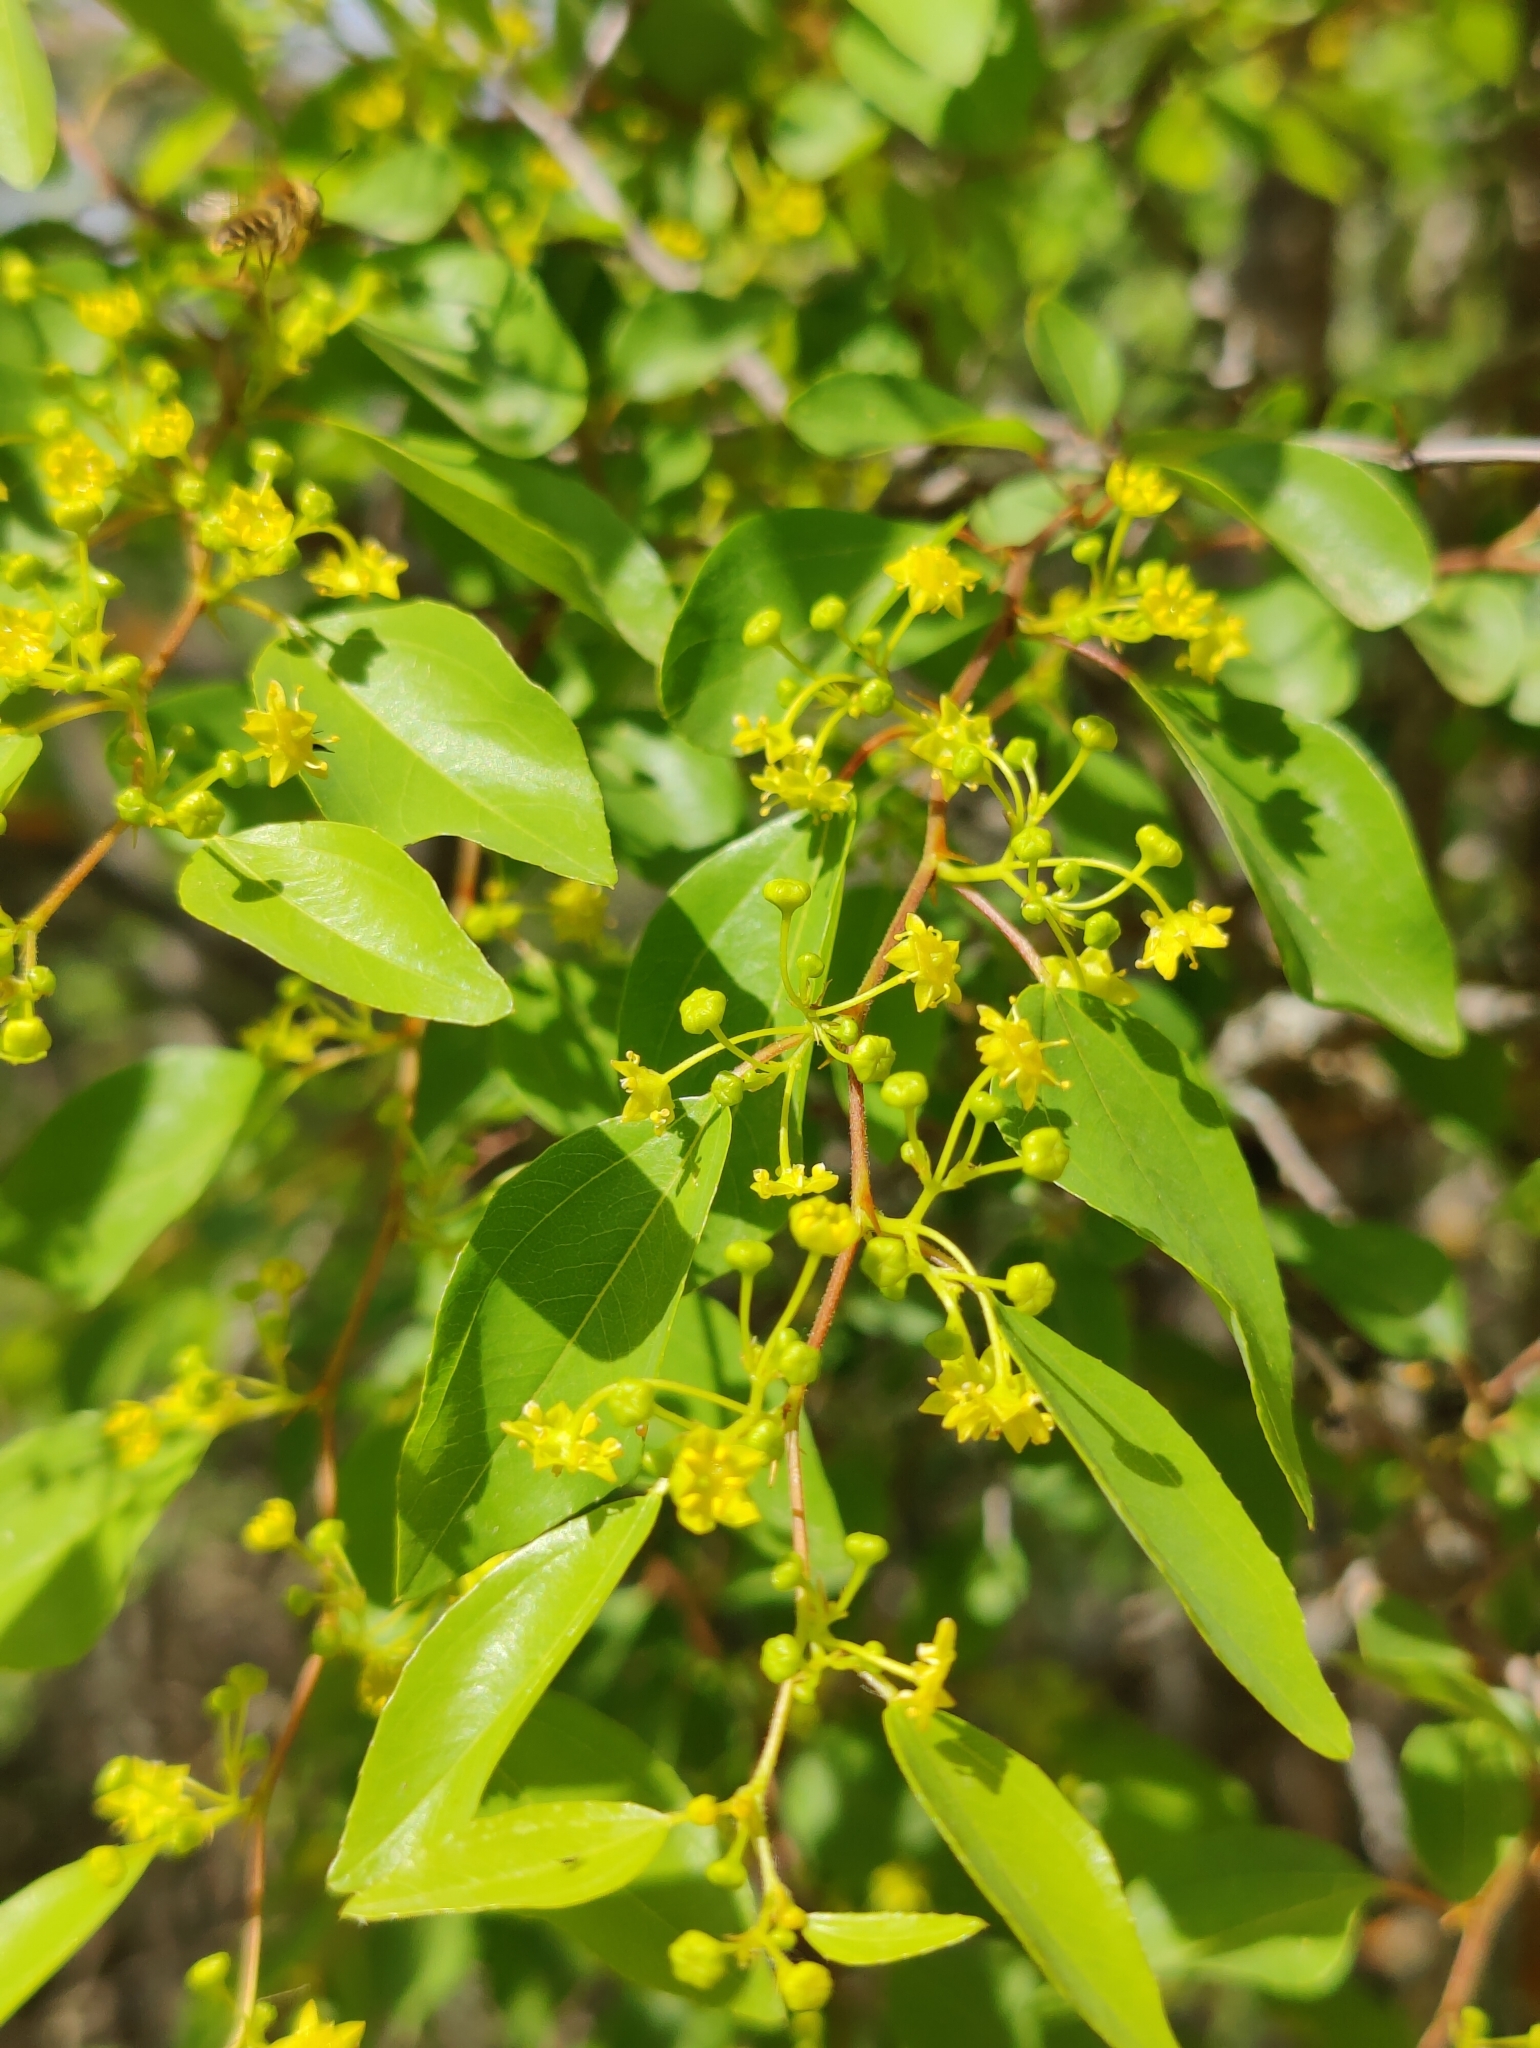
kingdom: Plantae
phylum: Tracheophyta
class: Magnoliopsida
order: Rosales
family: Rhamnaceae
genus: Paliurus
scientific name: Paliurus spina-christi
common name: Jeruselem thorn
